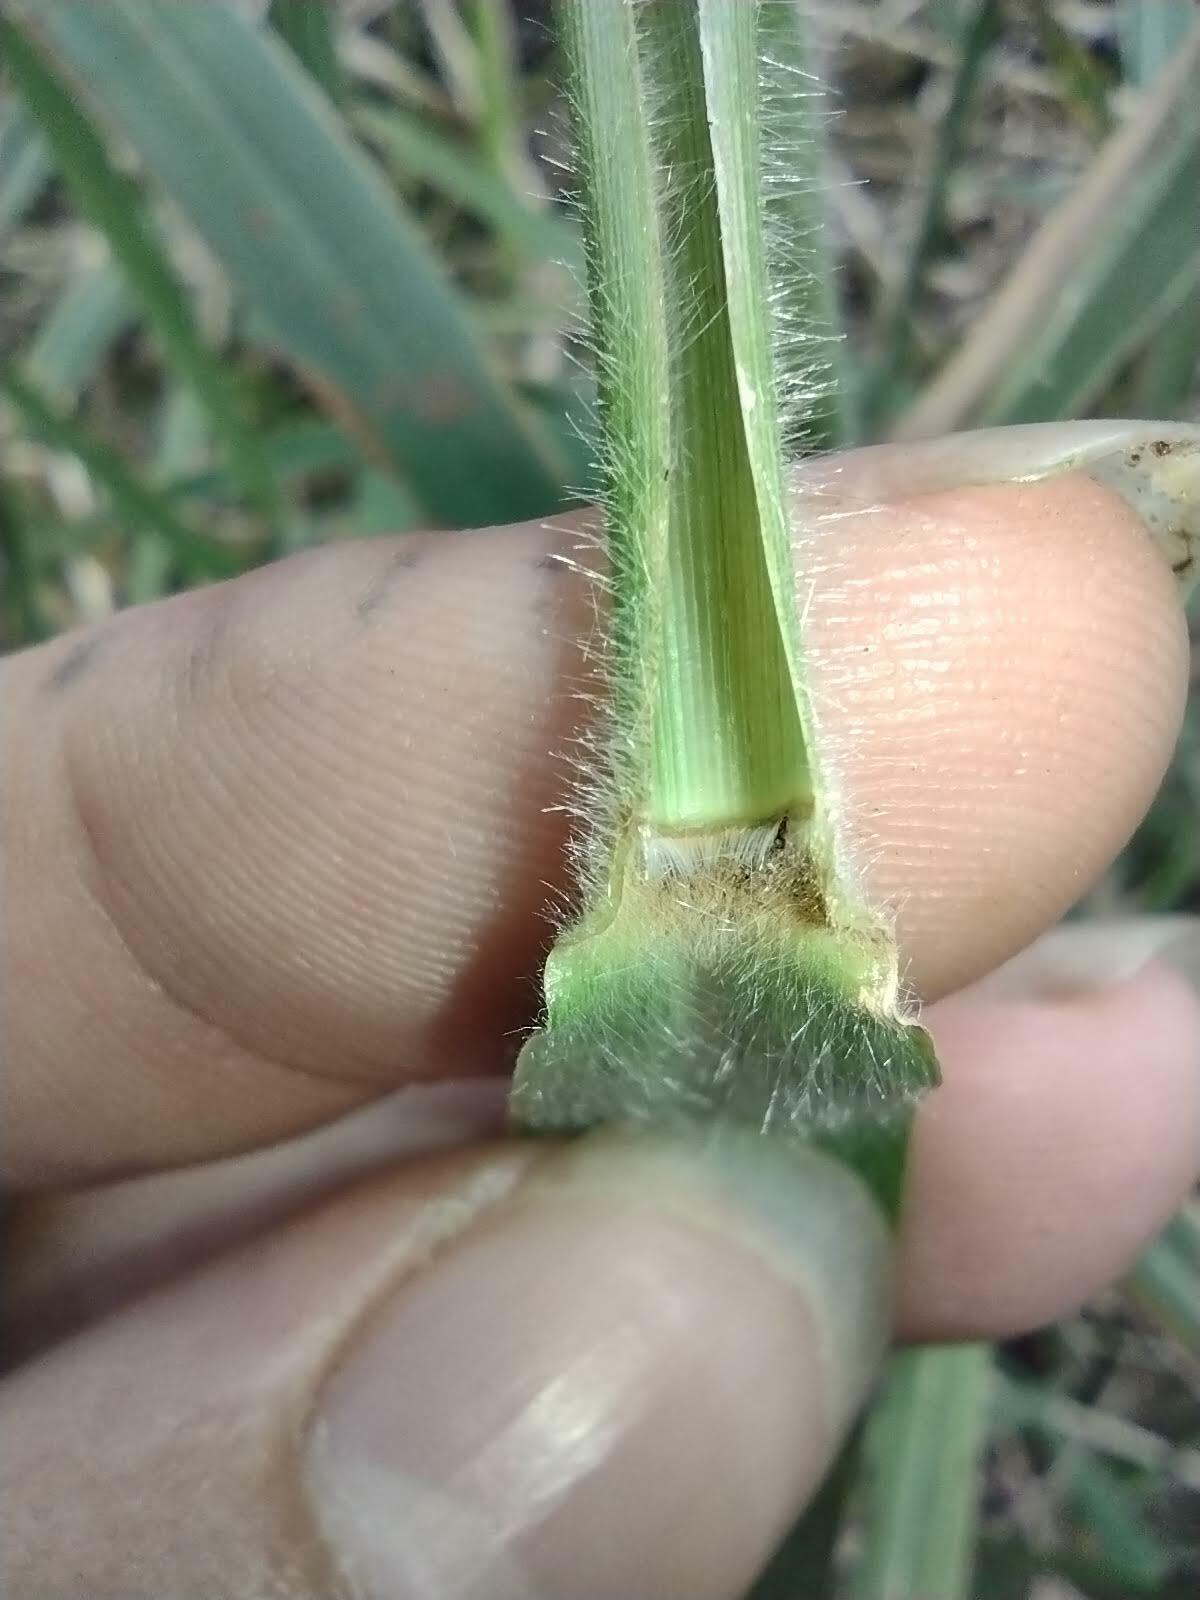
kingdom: Plantae
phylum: Tracheophyta
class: Liliopsida
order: Poales
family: Poaceae
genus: Urochloa
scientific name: Urochloa mutica
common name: Para grass
